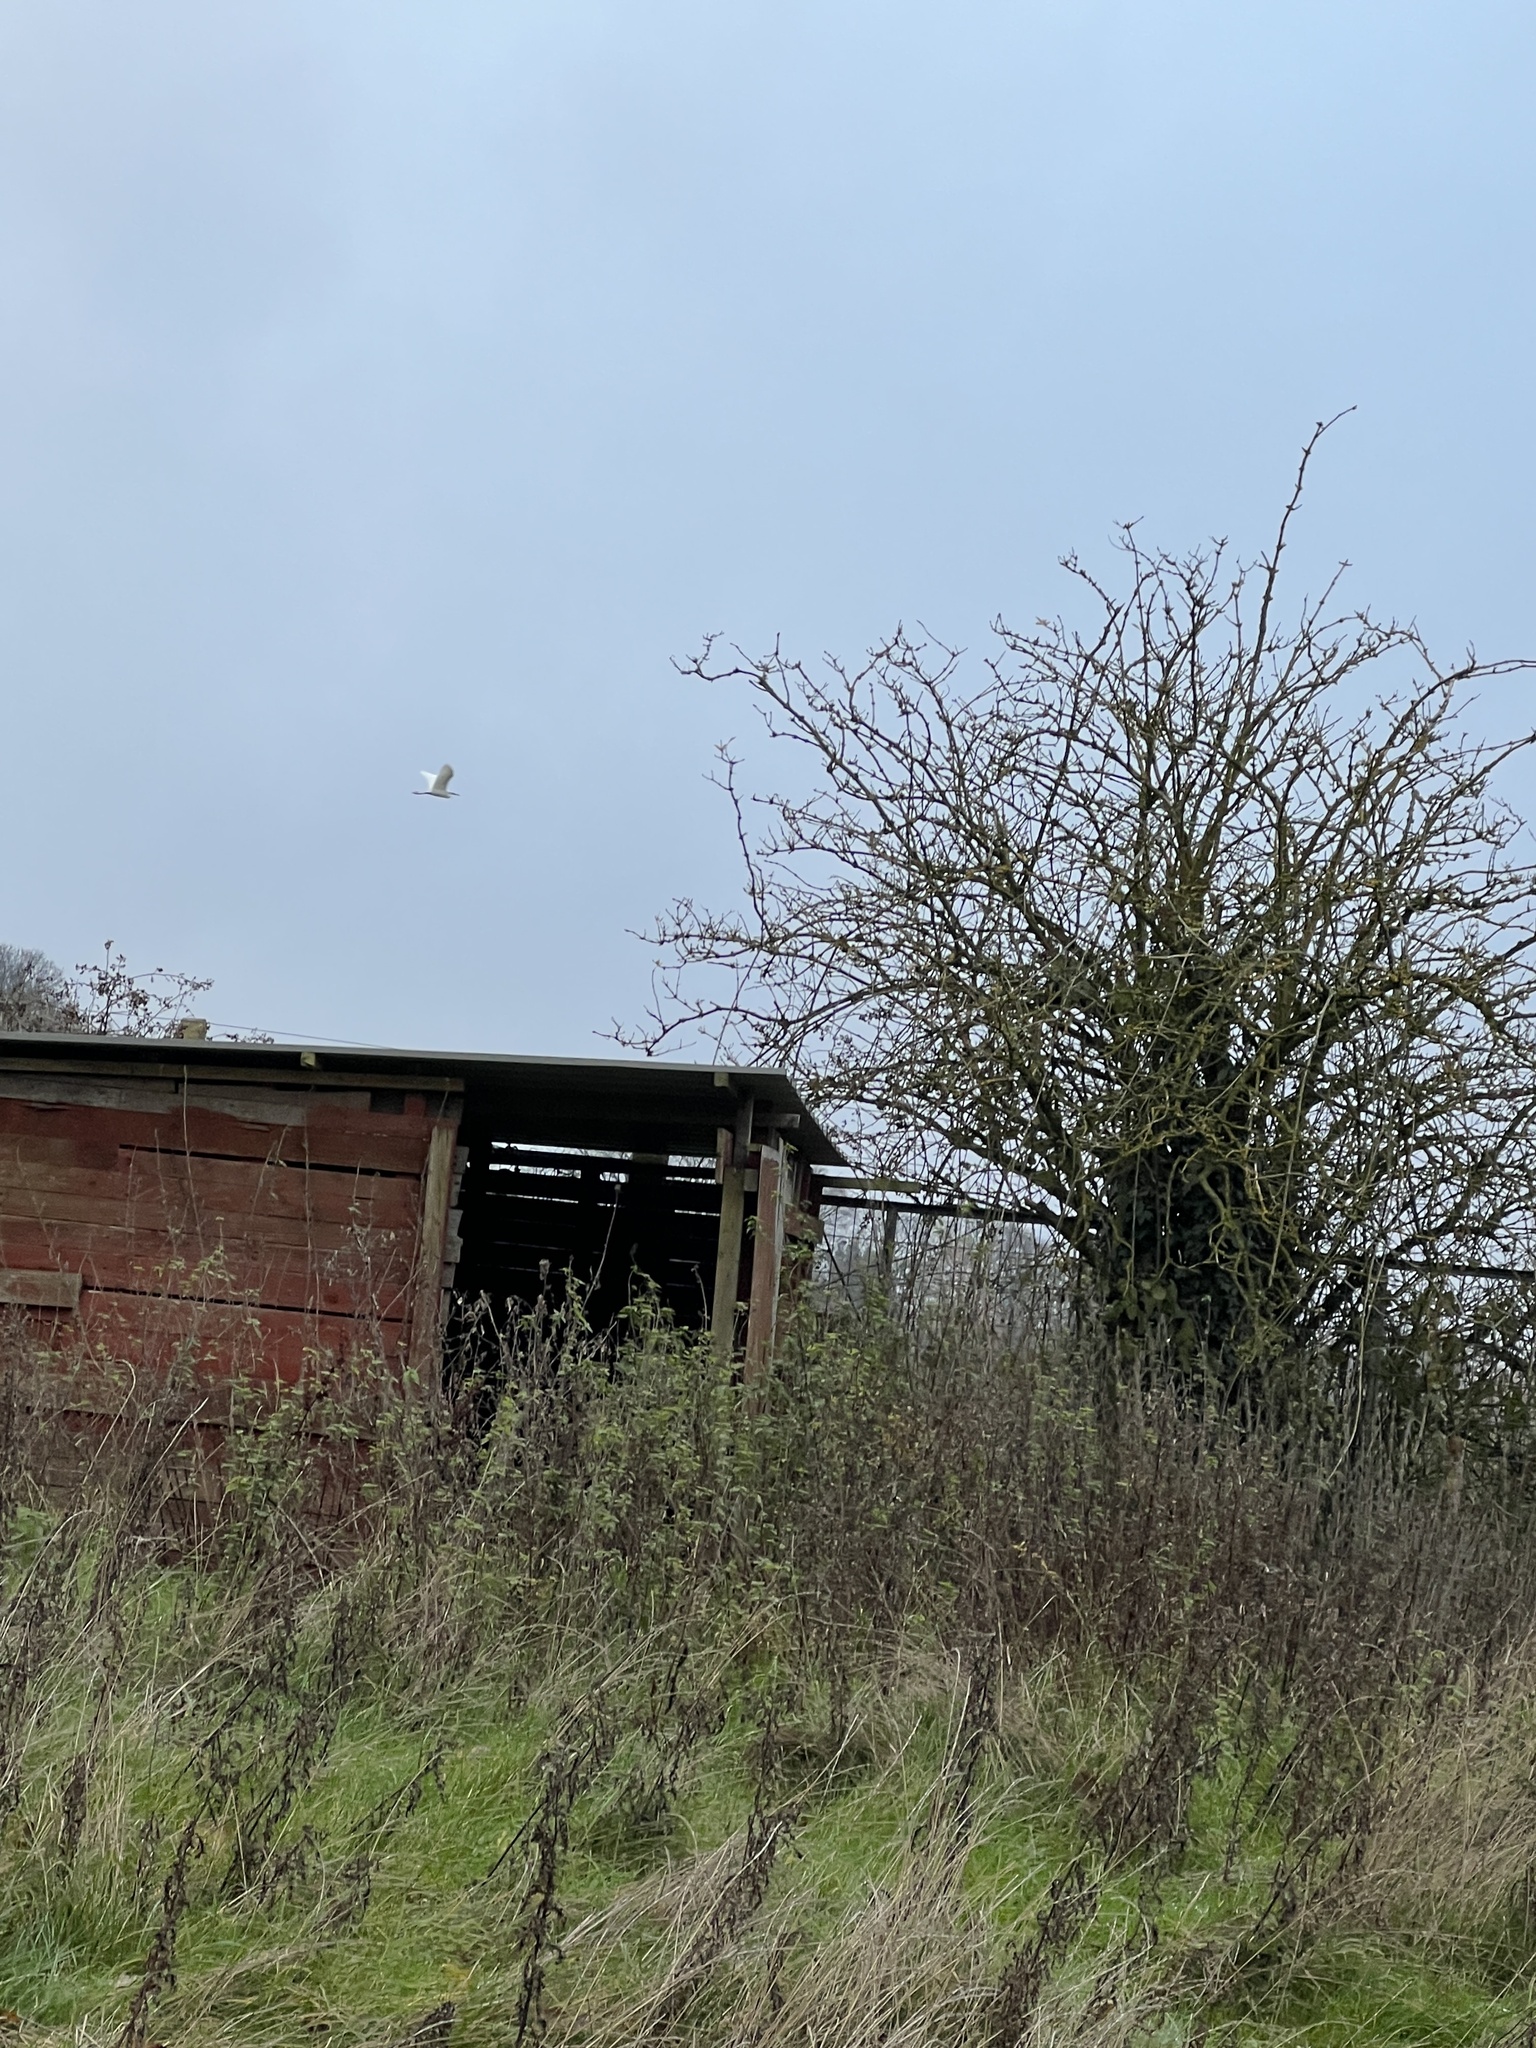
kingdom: Animalia
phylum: Chordata
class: Aves
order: Pelecaniformes
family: Ardeidae
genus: Egretta
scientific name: Egretta garzetta
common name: Little egret
